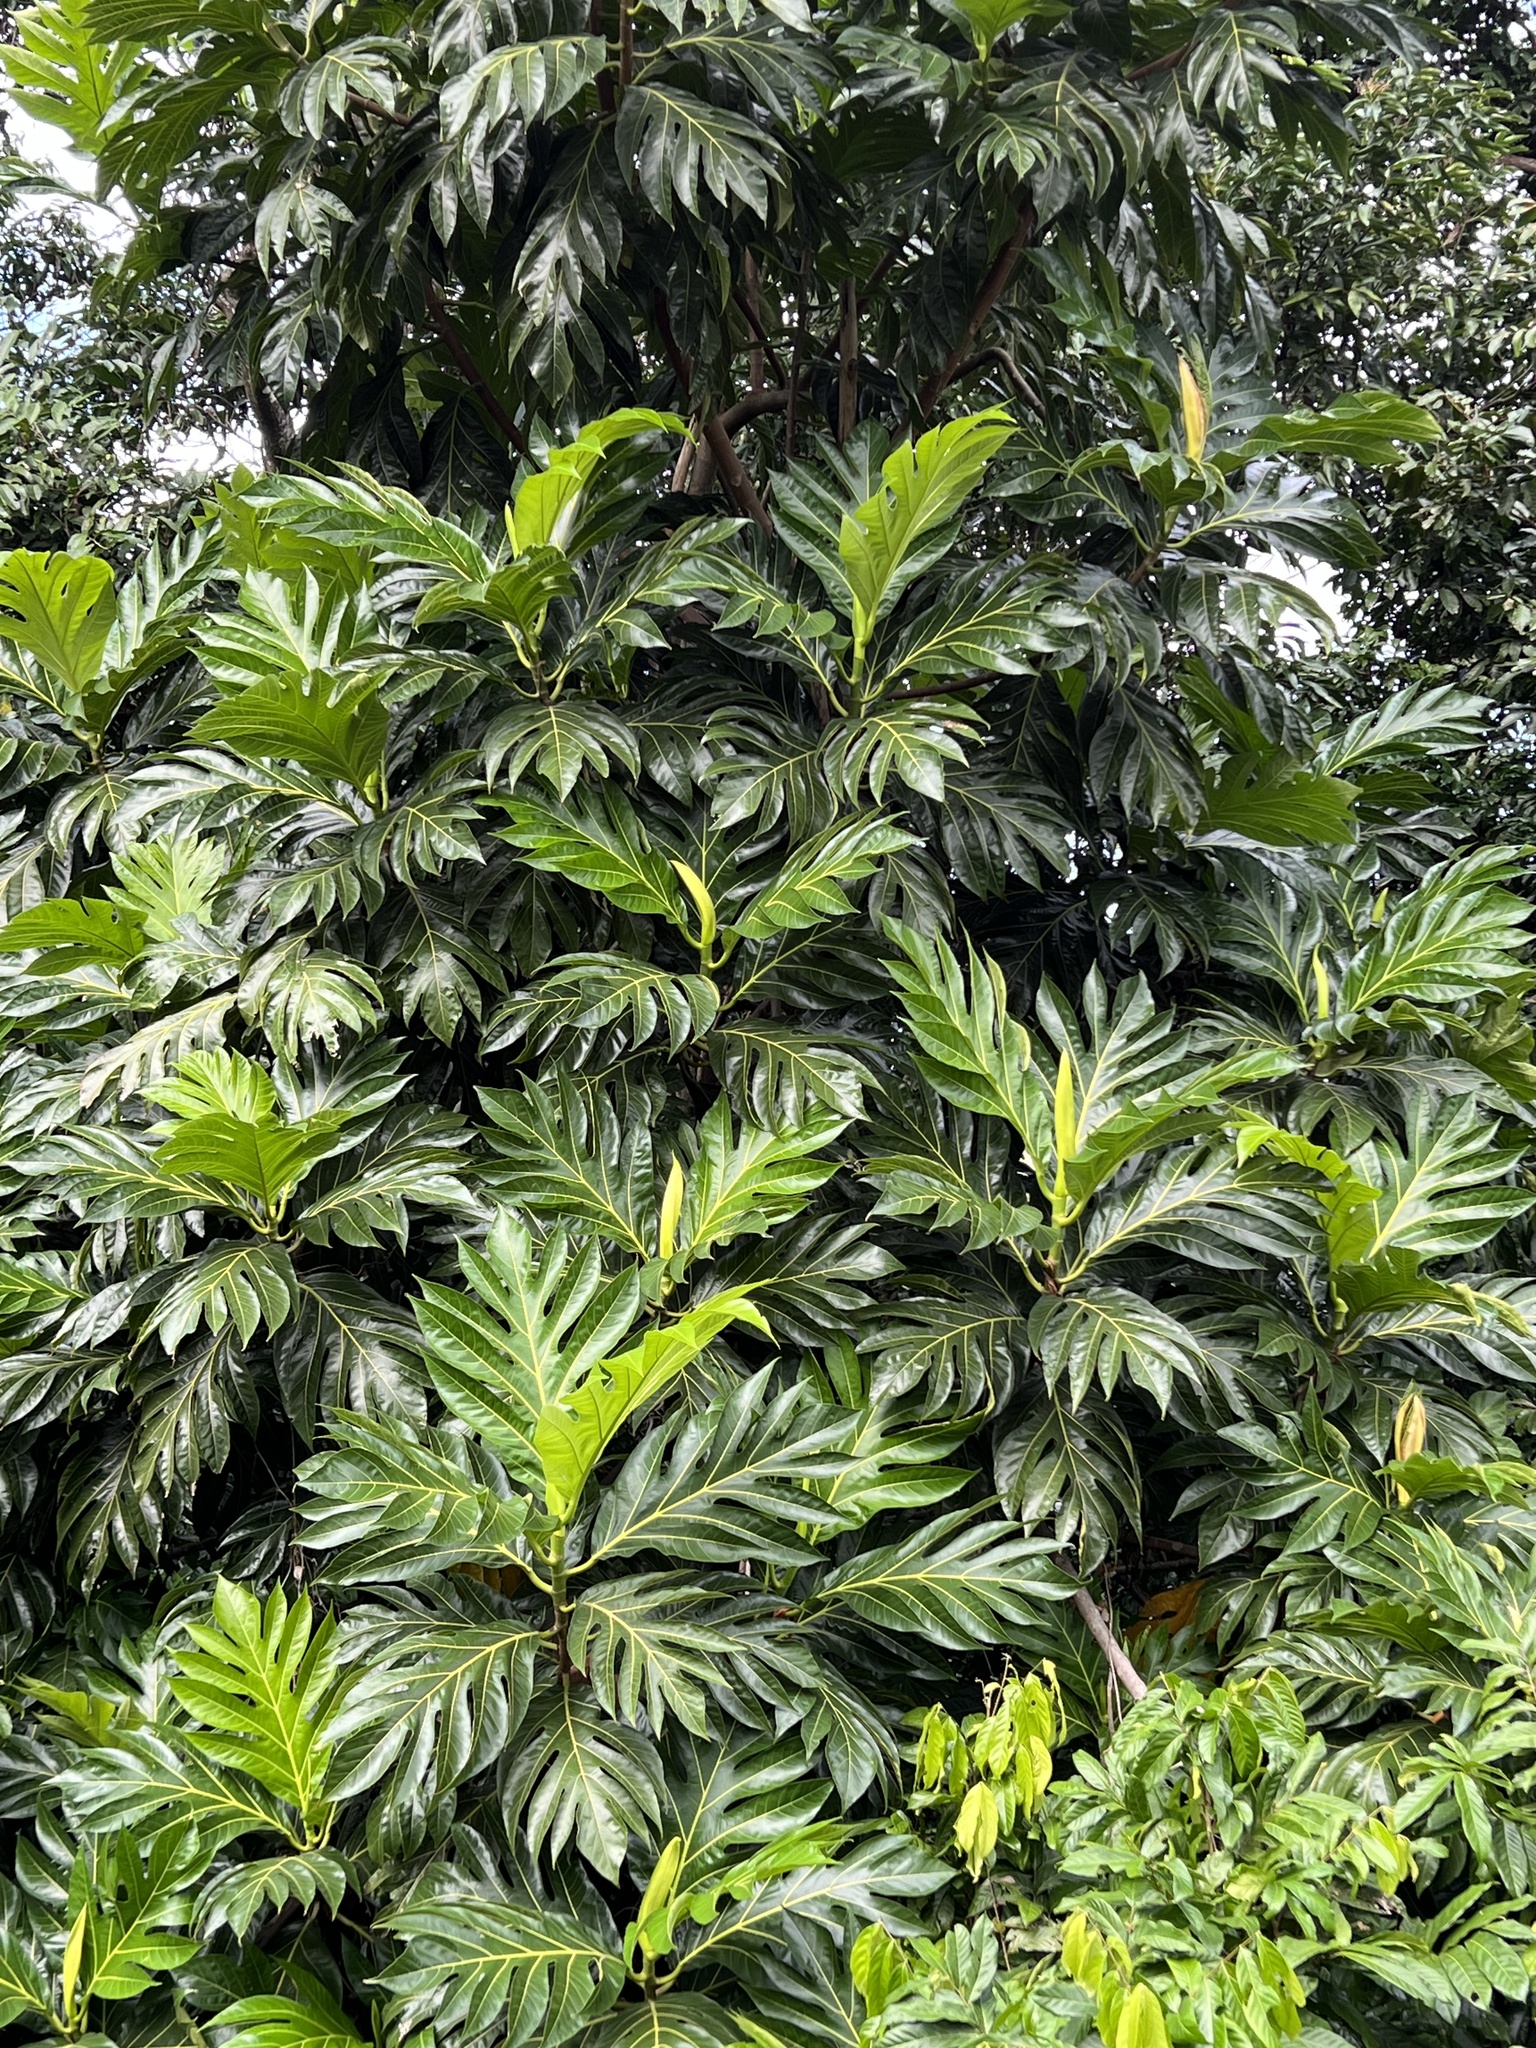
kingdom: Plantae
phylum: Tracheophyta
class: Magnoliopsida
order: Rosales
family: Moraceae
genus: Artocarpus
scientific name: Artocarpus altilis
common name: Breadfruit
